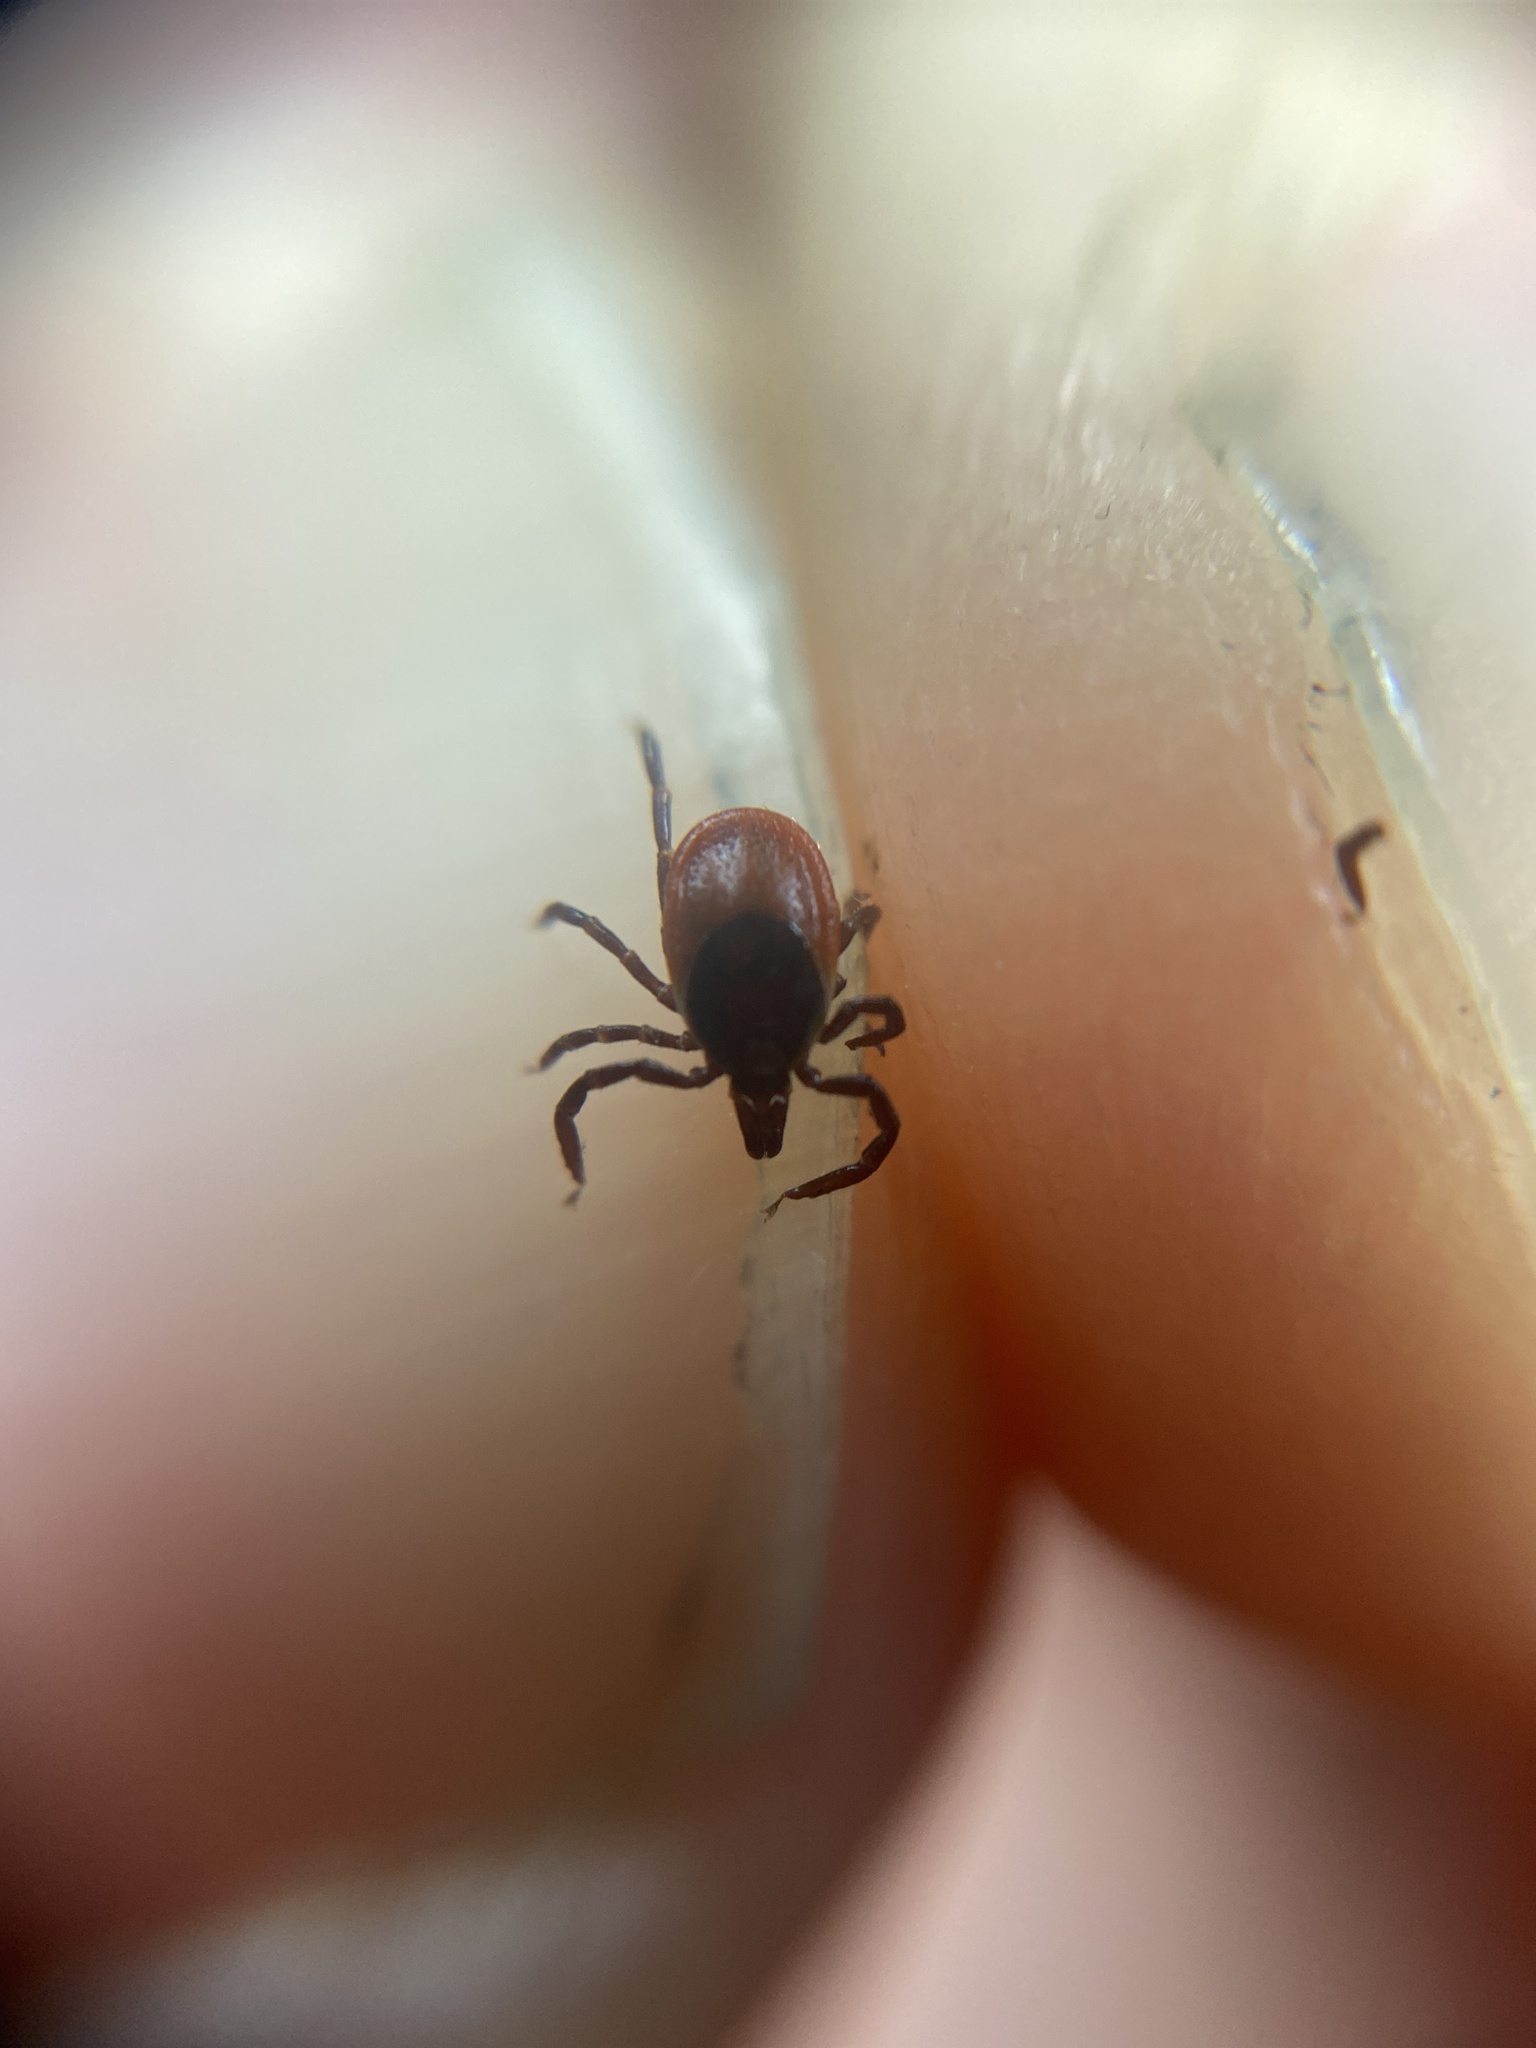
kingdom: Animalia
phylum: Arthropoda
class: Arachnida
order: Ixodida
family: Ixodidae
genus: Ixodes
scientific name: Ixodes ricinus
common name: Castor bean tick
